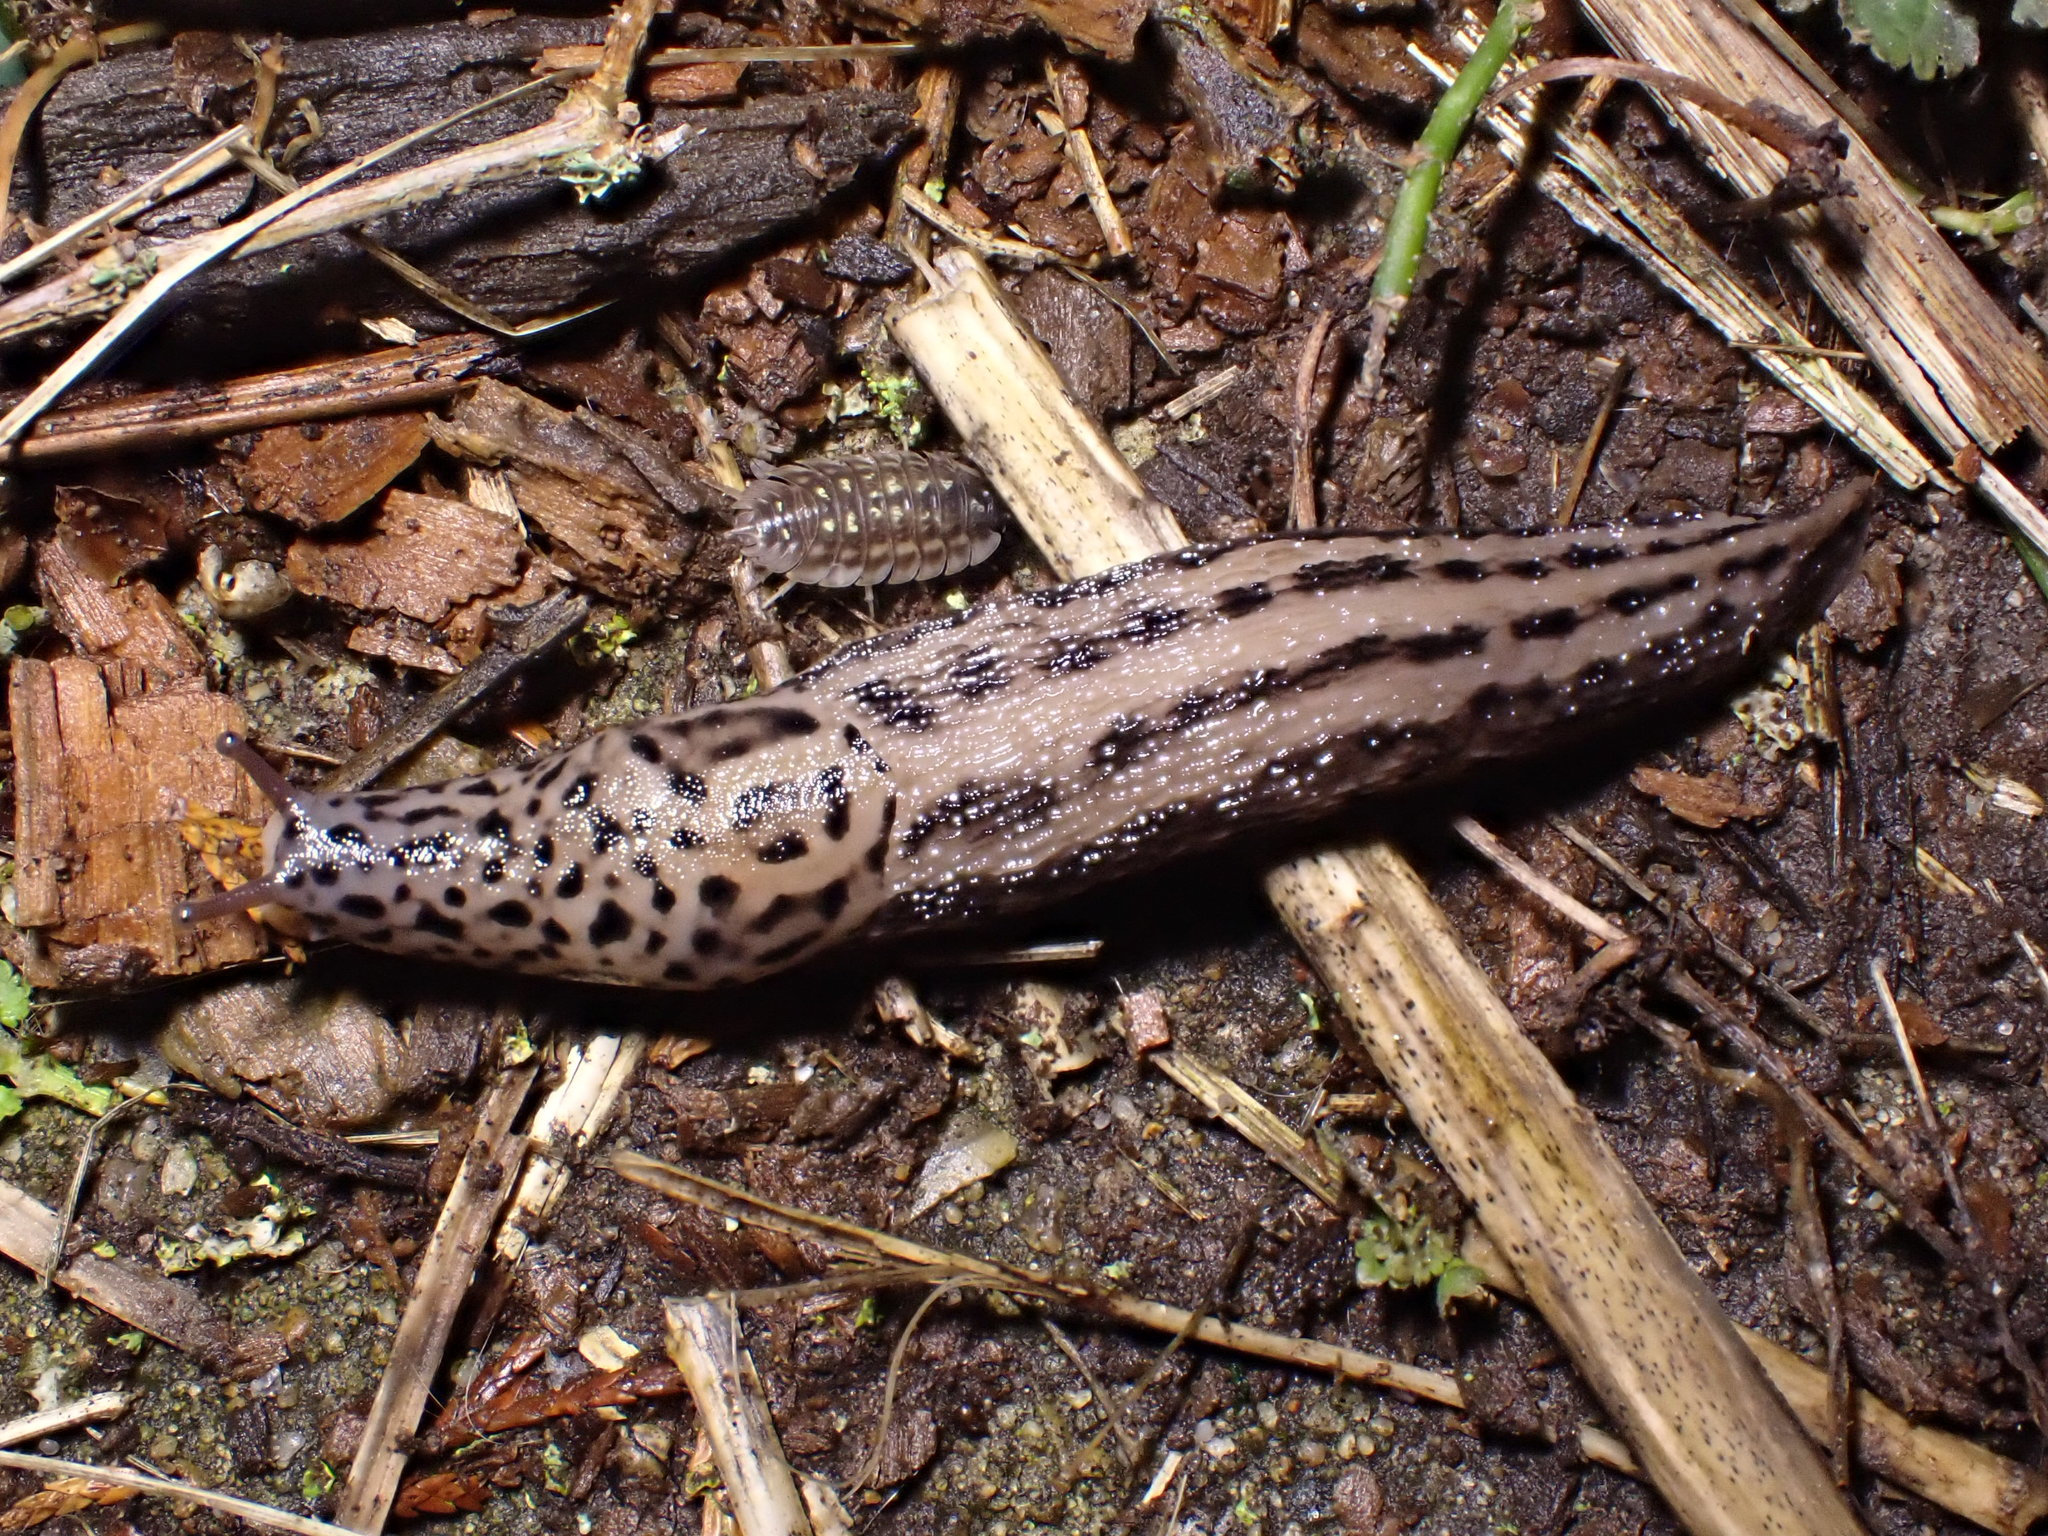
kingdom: Animalia
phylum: Mollusca
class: Gastropoda
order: Stylommatophora
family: Limacidae
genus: Limax
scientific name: Limax maximus
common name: Great grey slug
